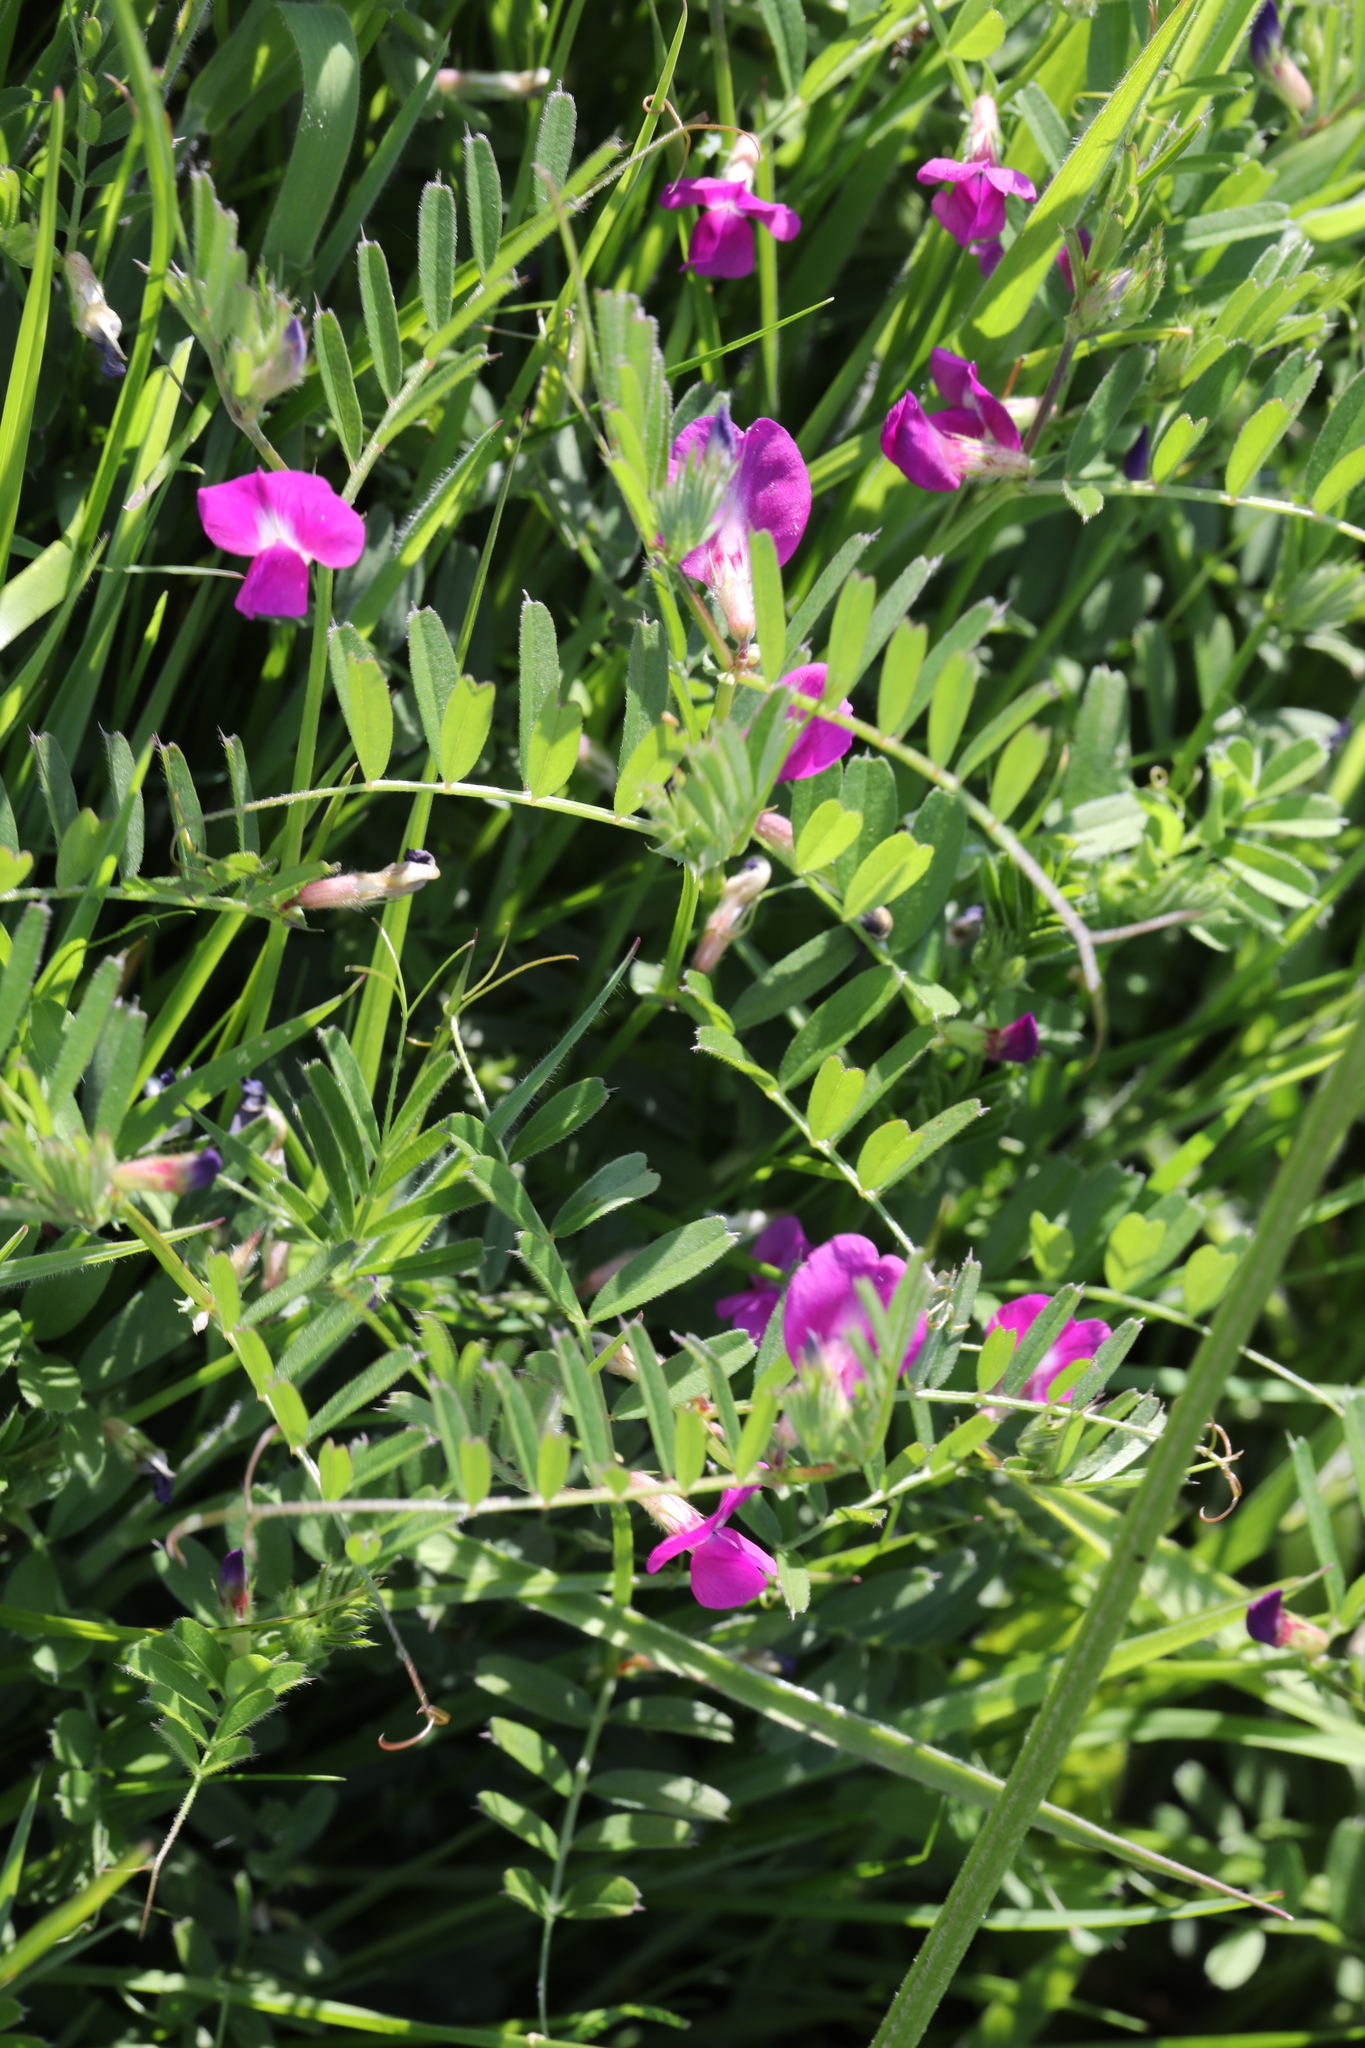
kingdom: Plantae
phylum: Tracheophyta
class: Magnoliopsida
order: Fabales
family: Fabaceae
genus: Vicia
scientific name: Vicia sativa
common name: Garden vetch
